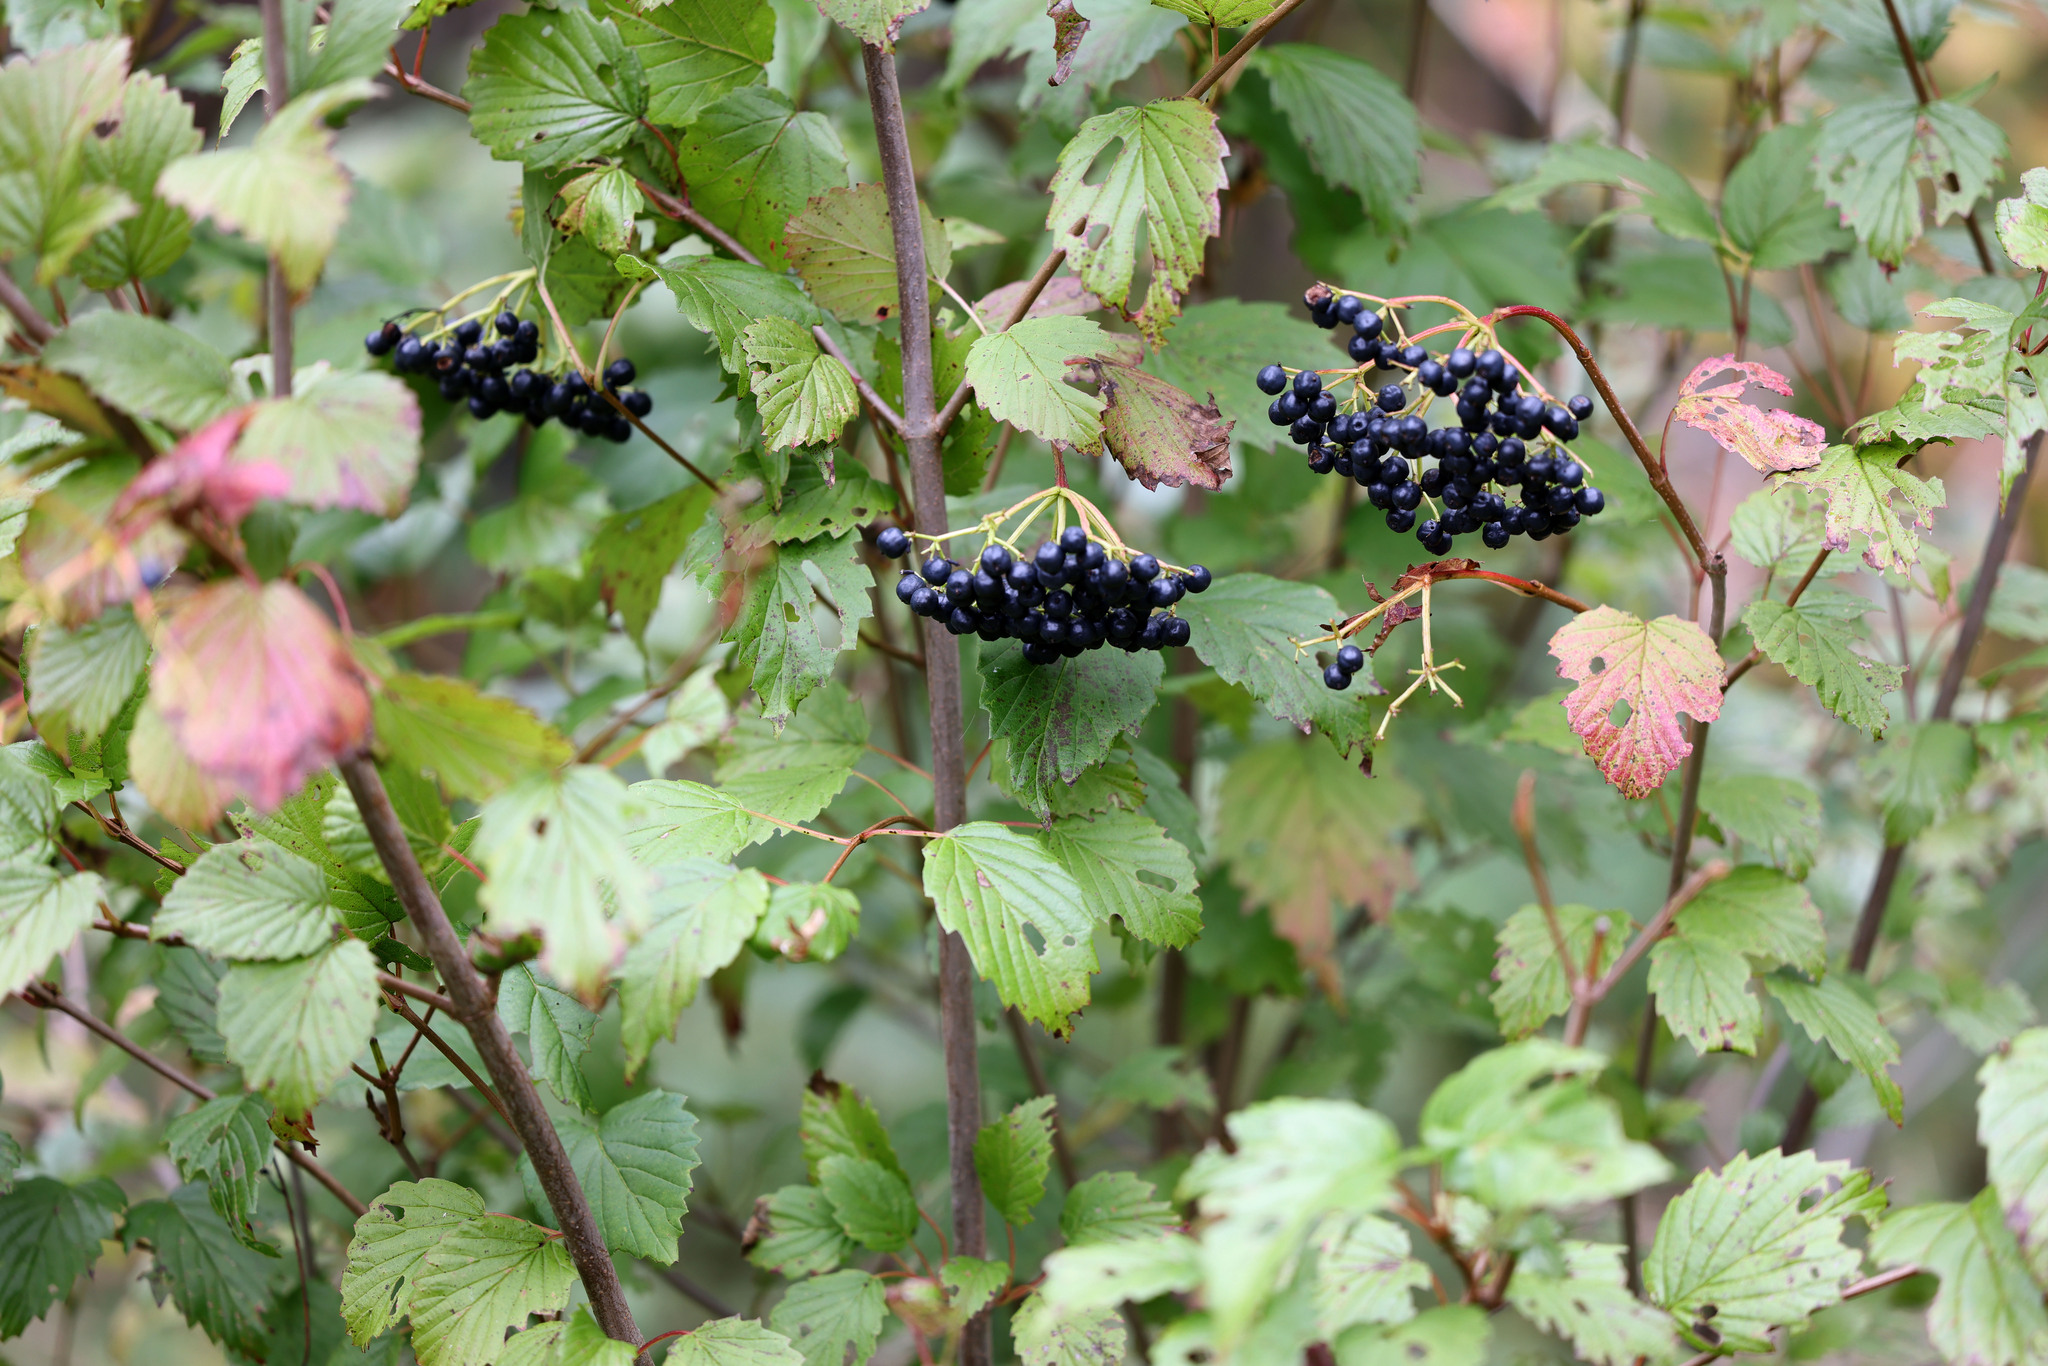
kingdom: Plantae
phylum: Tracheophyta
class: Magnoliopsida
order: Dipsacales
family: Viburnaceae
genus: Viburnum
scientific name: Viburnum recognitum
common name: Northern arrow-wood
